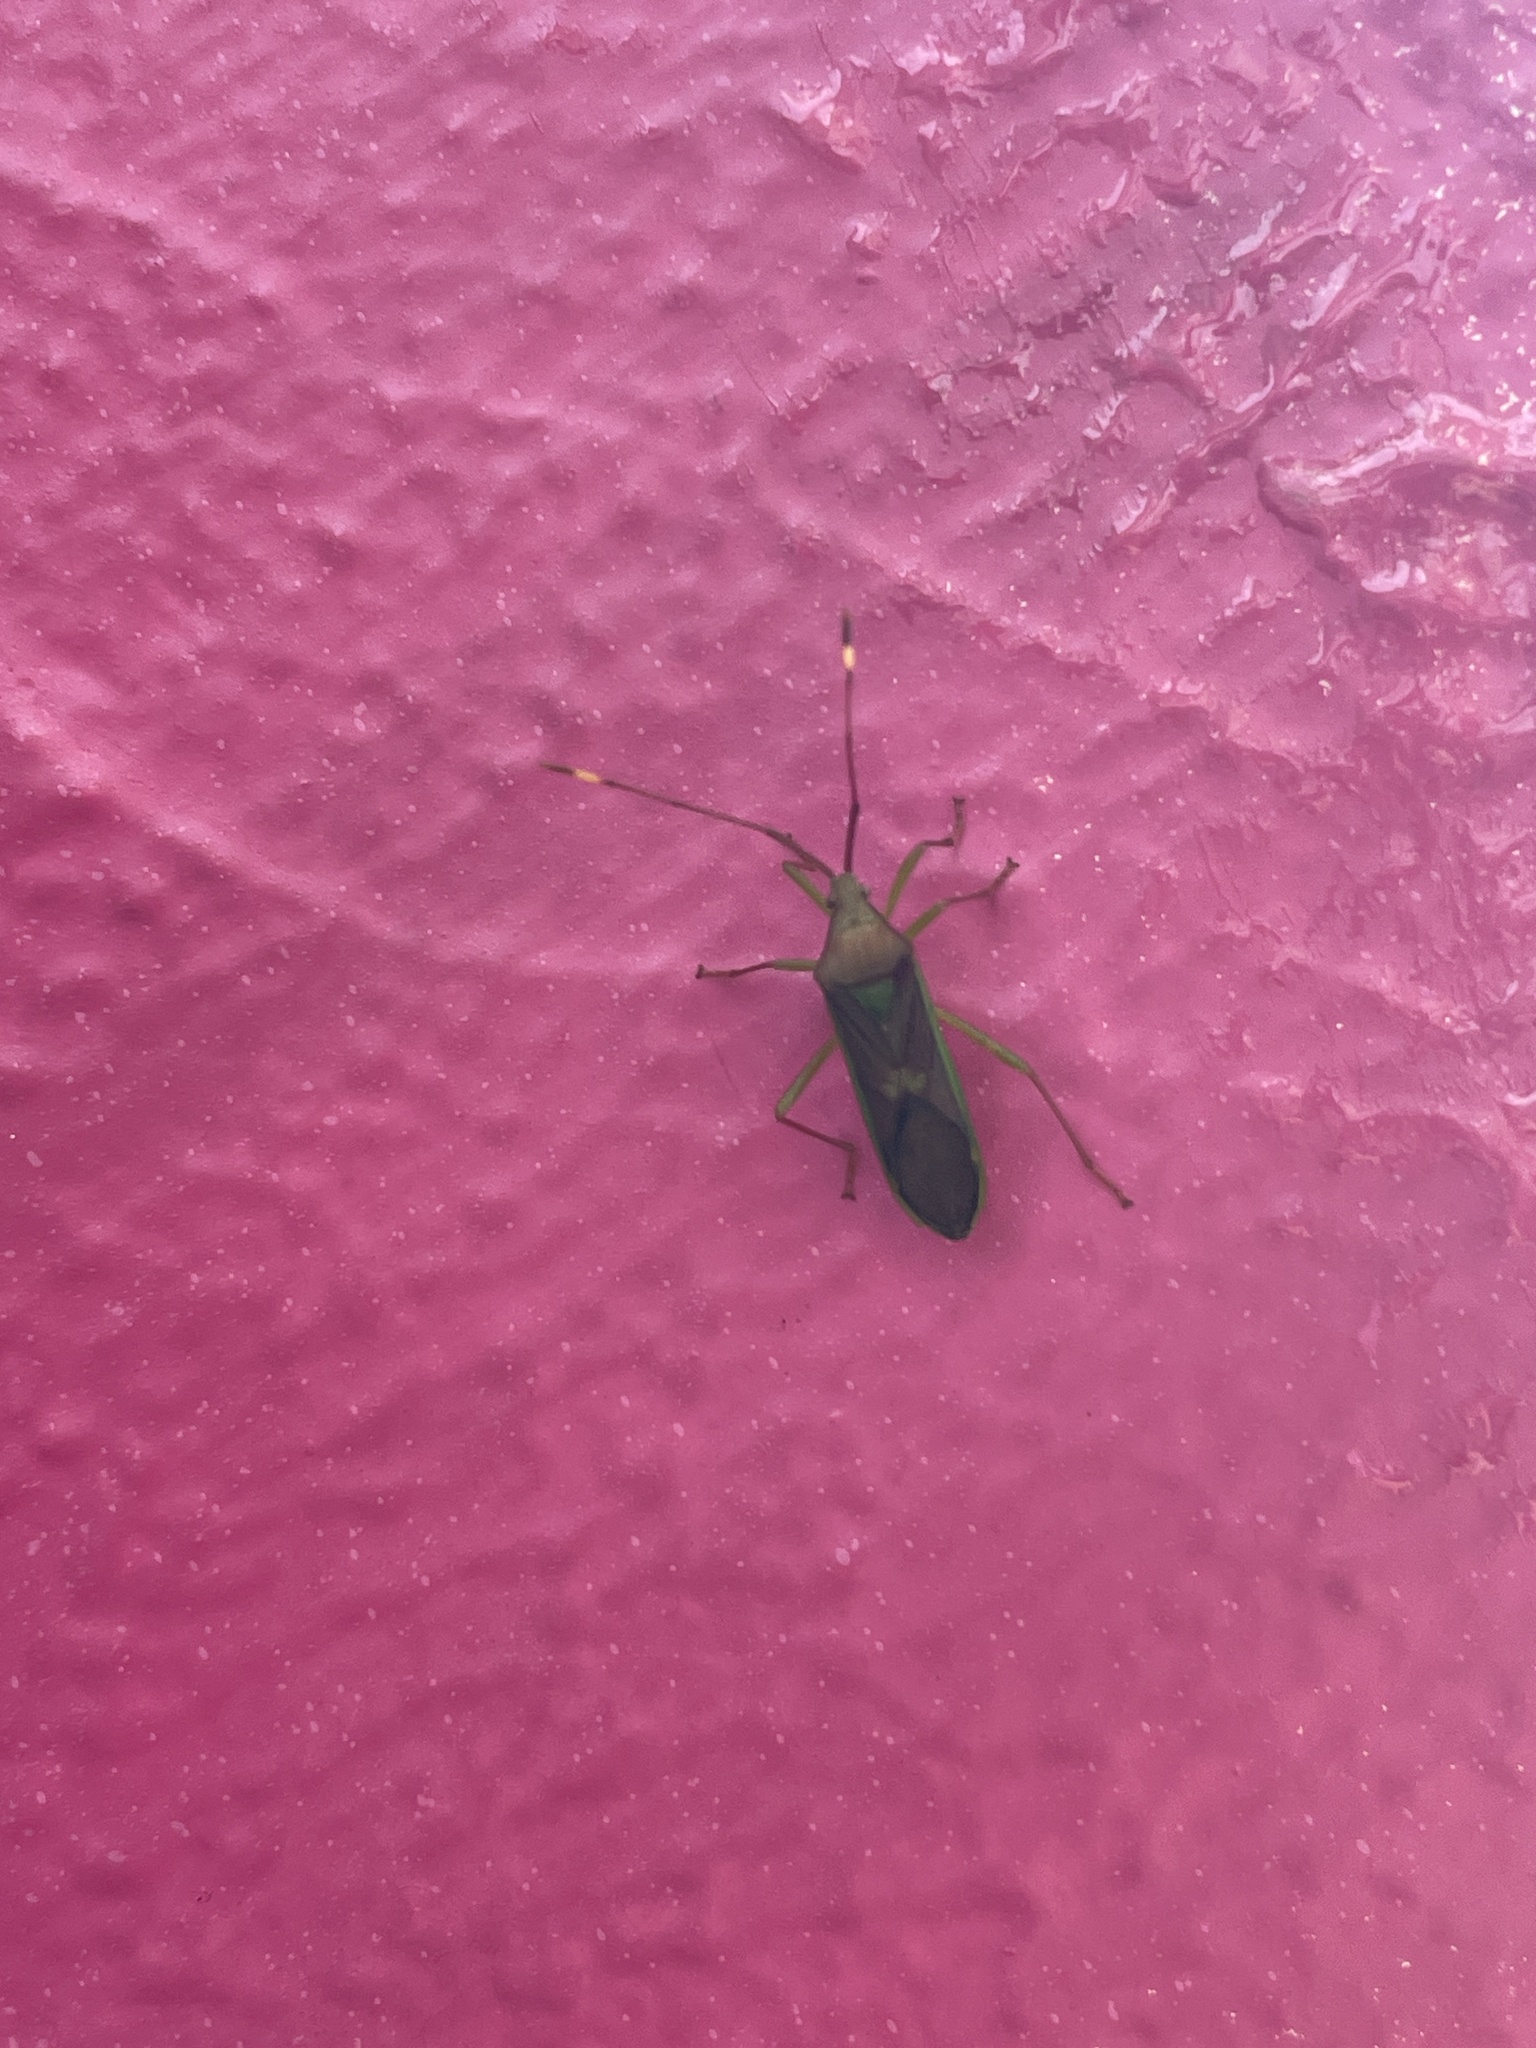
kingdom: Animalia
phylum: Arthropoda
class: Insecta
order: Hemiptera
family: Coreidae
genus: Homoeocerus
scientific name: Homoeocerus rubromaculatus
